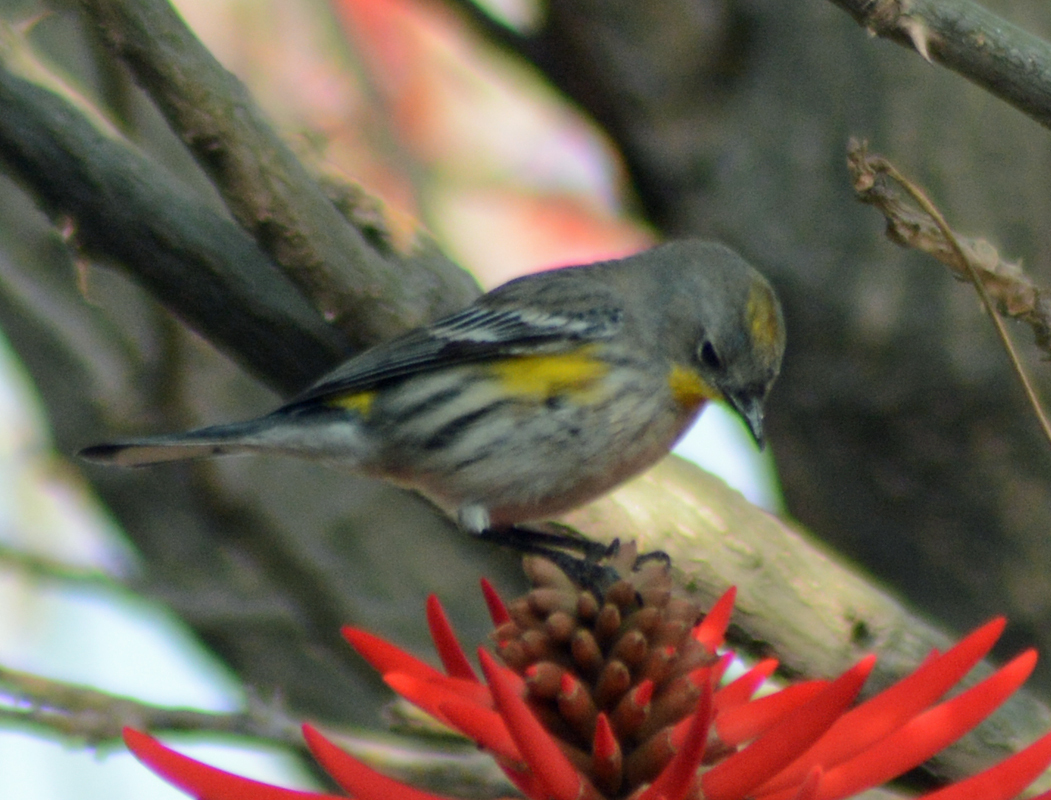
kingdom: Animalia
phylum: Chordata
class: Aves
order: Passeriformes
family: Parulidae
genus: Setophaga
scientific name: Setophaga auduboni
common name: Audubon's warbler
